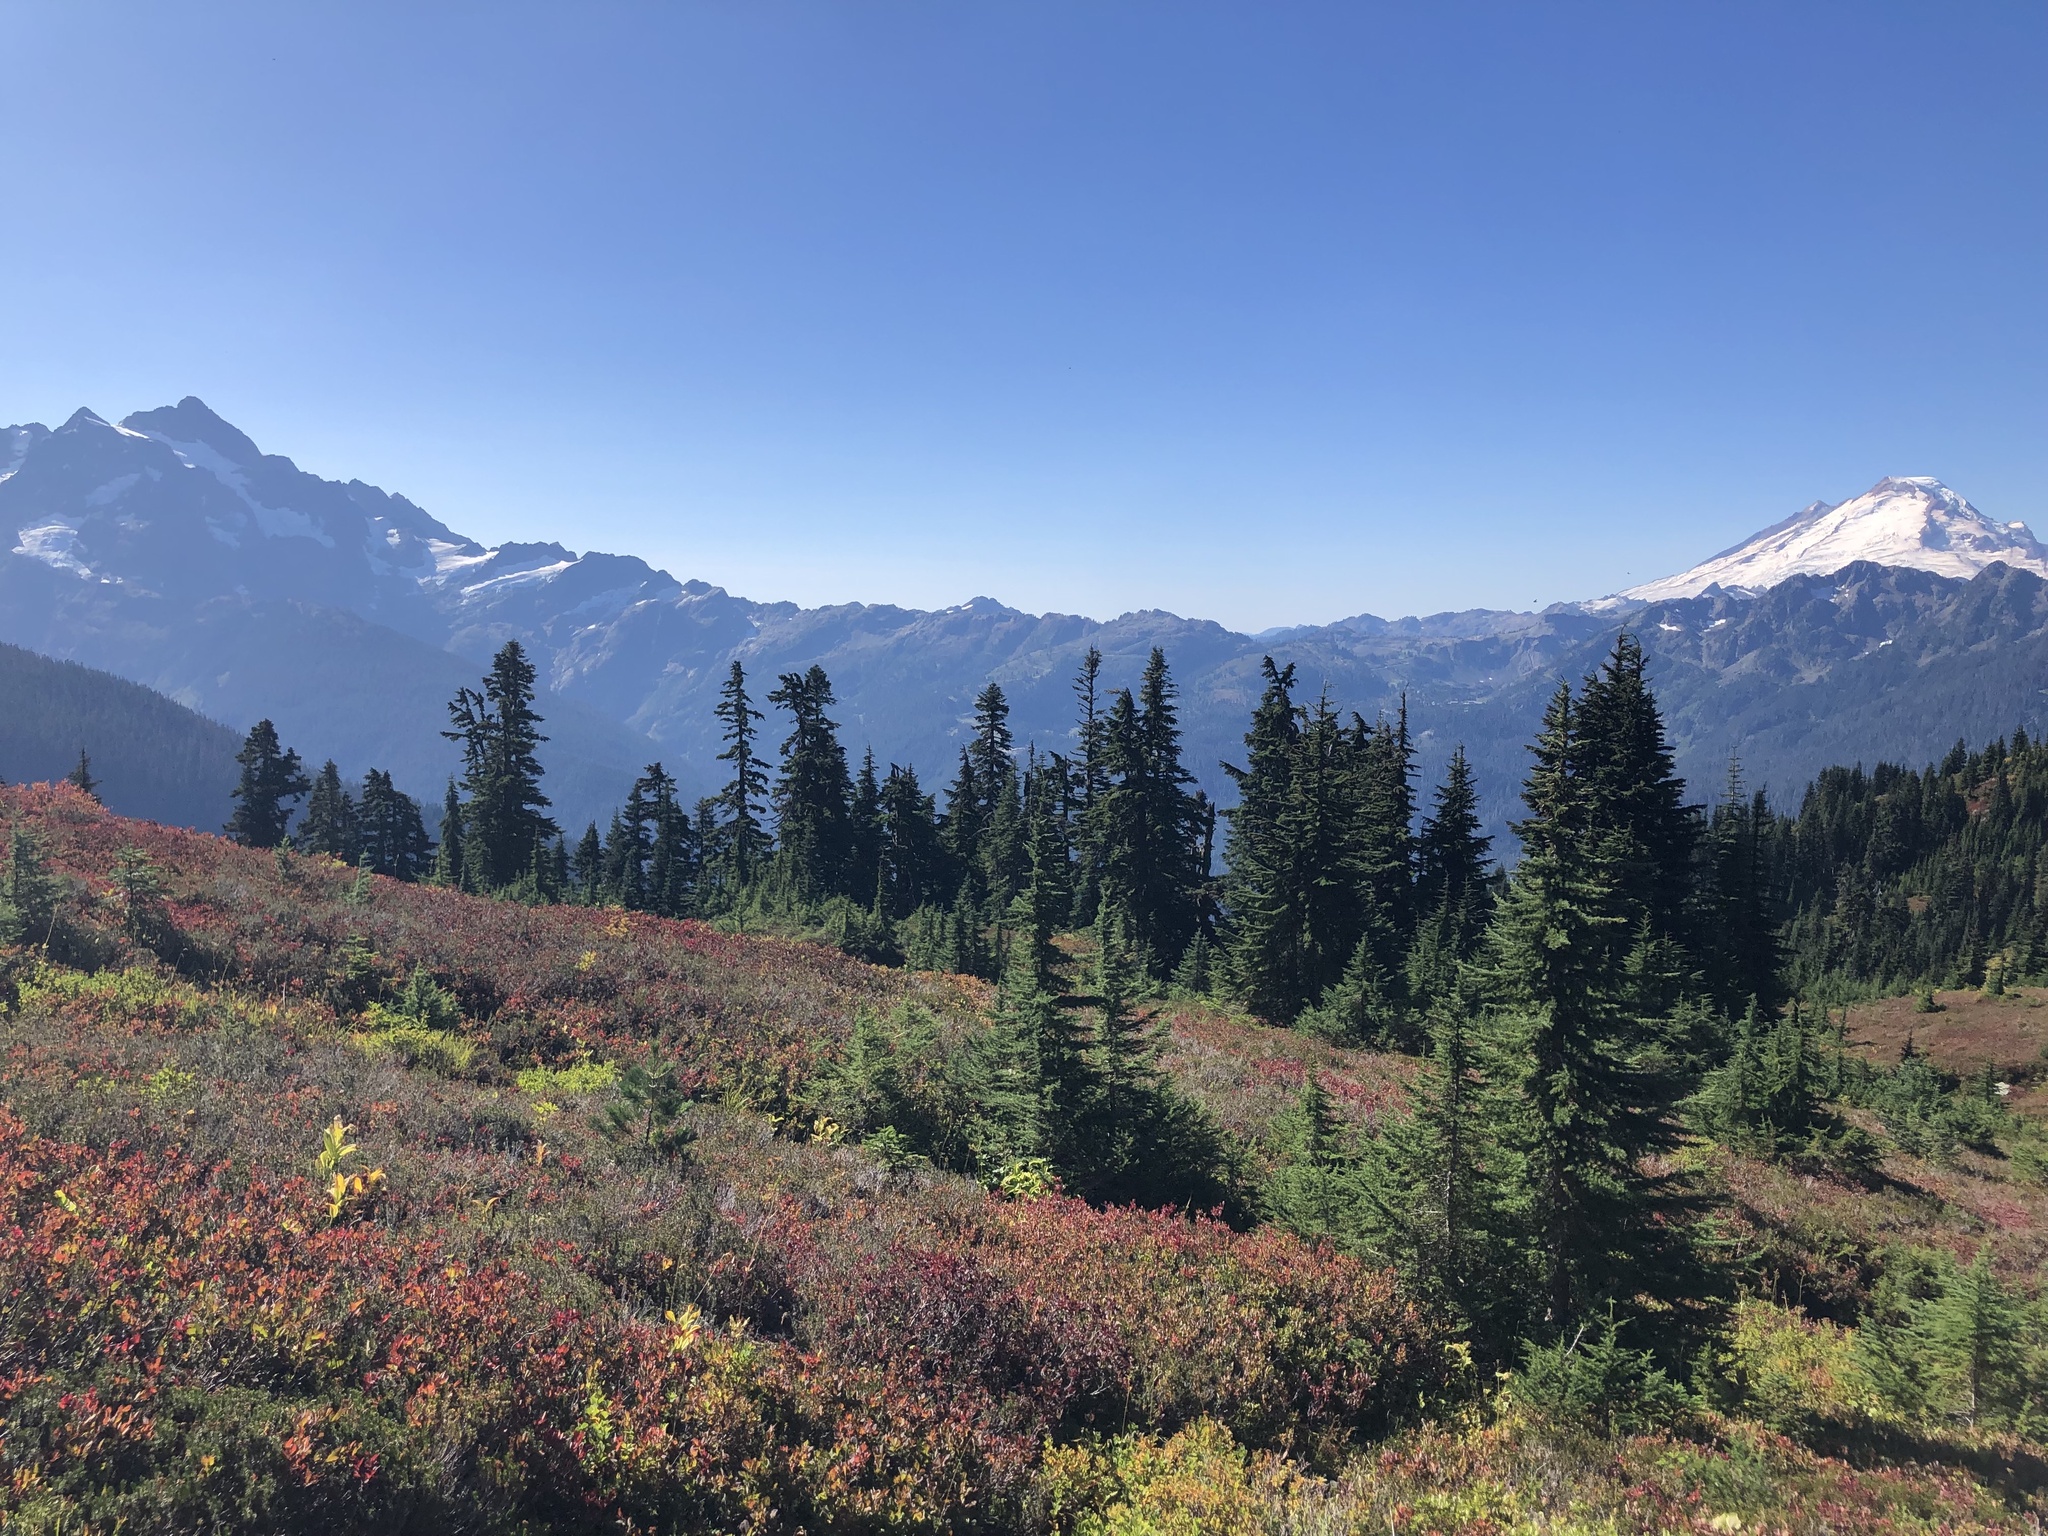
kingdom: Plantae
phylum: Tracheophyta
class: Pinopsida
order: Pinales
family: Pinaceae
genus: Tsuga
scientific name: Tsuga mertensiana
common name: Mountain hemlock
